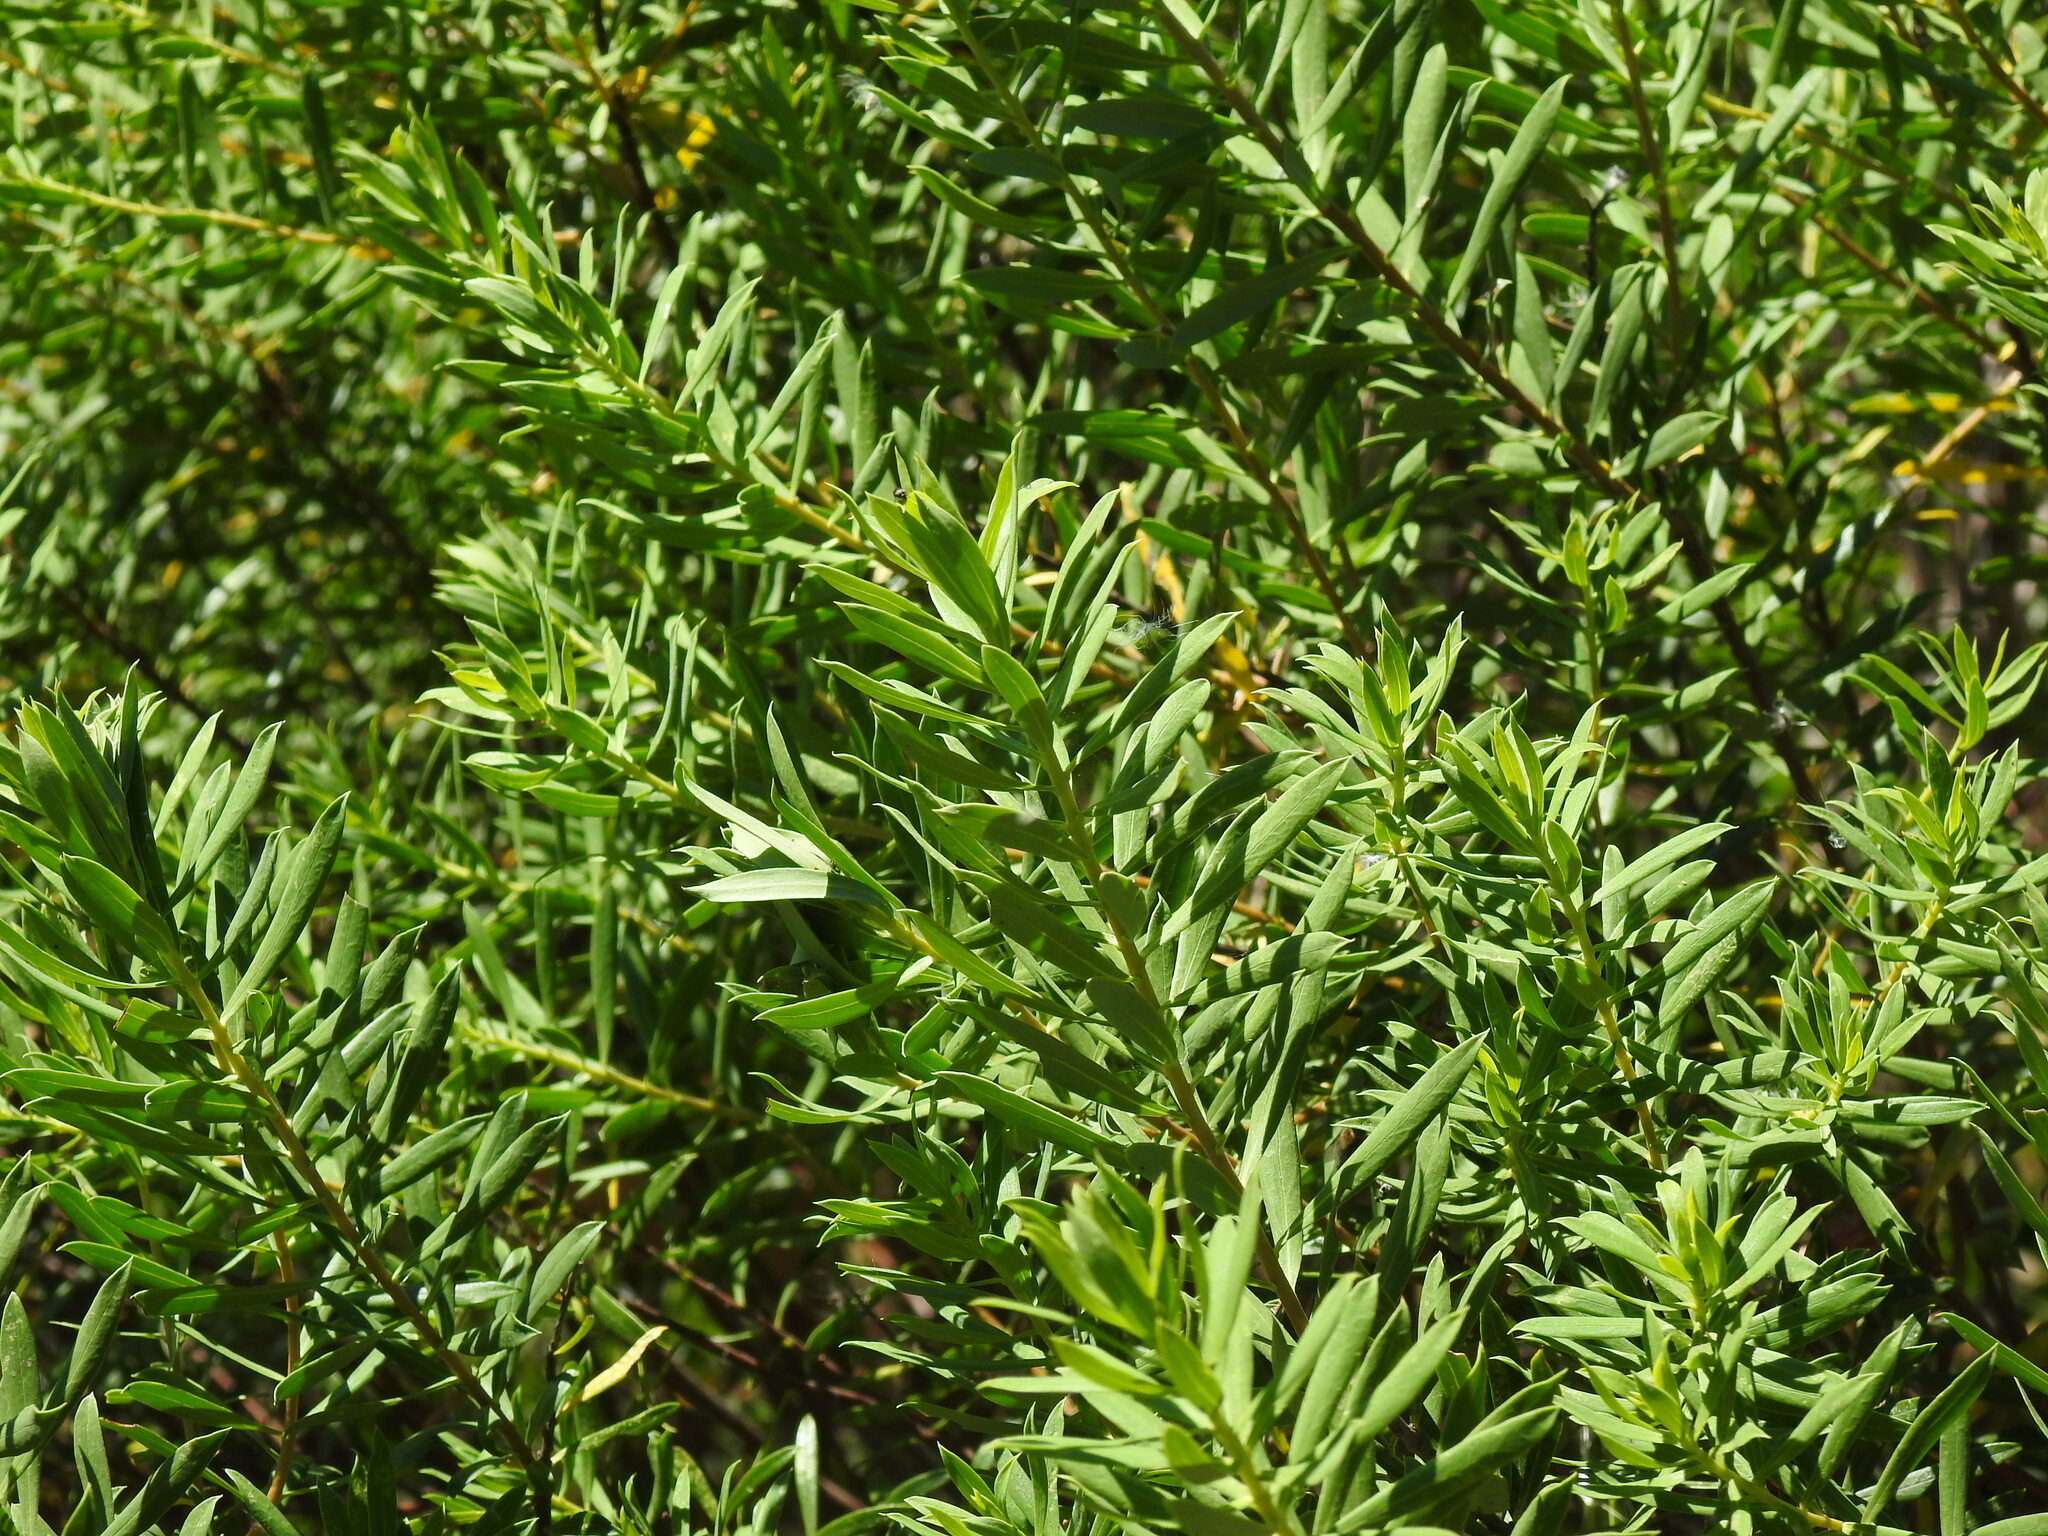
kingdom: Plantae
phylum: Tracheophyta
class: Magnoliopsida
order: Malvales
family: Thymelaeaceae
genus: Daphne
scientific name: Daphne gnidium
